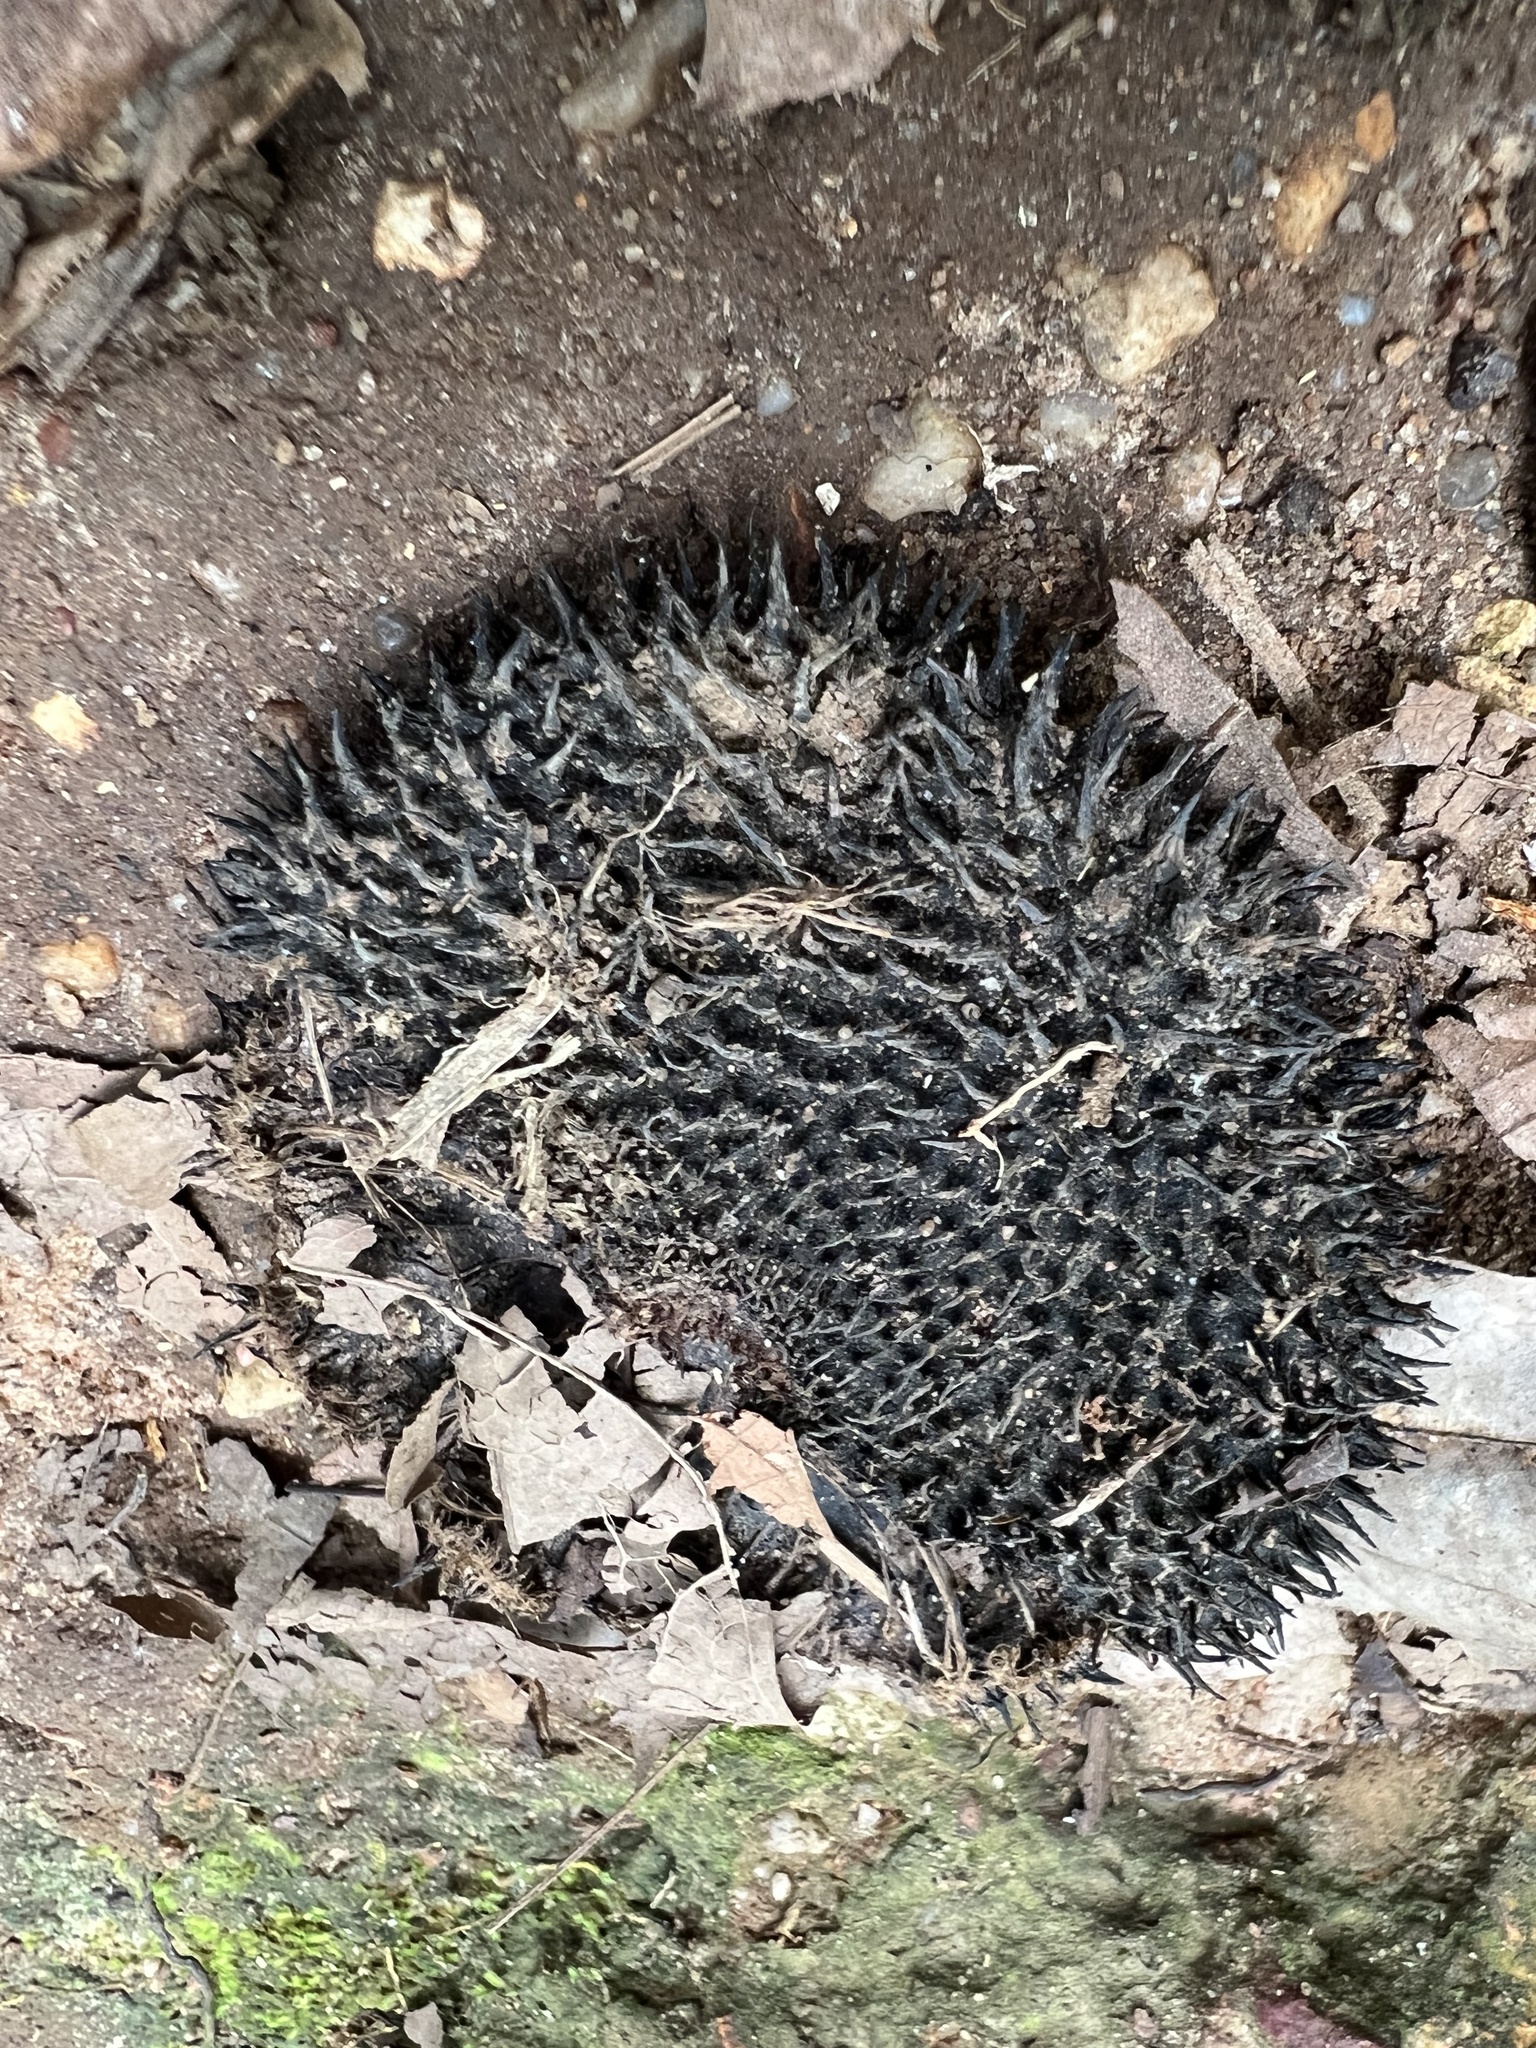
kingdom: Plantae
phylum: Tracheophyta
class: Magnoliopsida
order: Malvales
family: Malvaceae
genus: Apeiba
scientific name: Apeiba glabra
